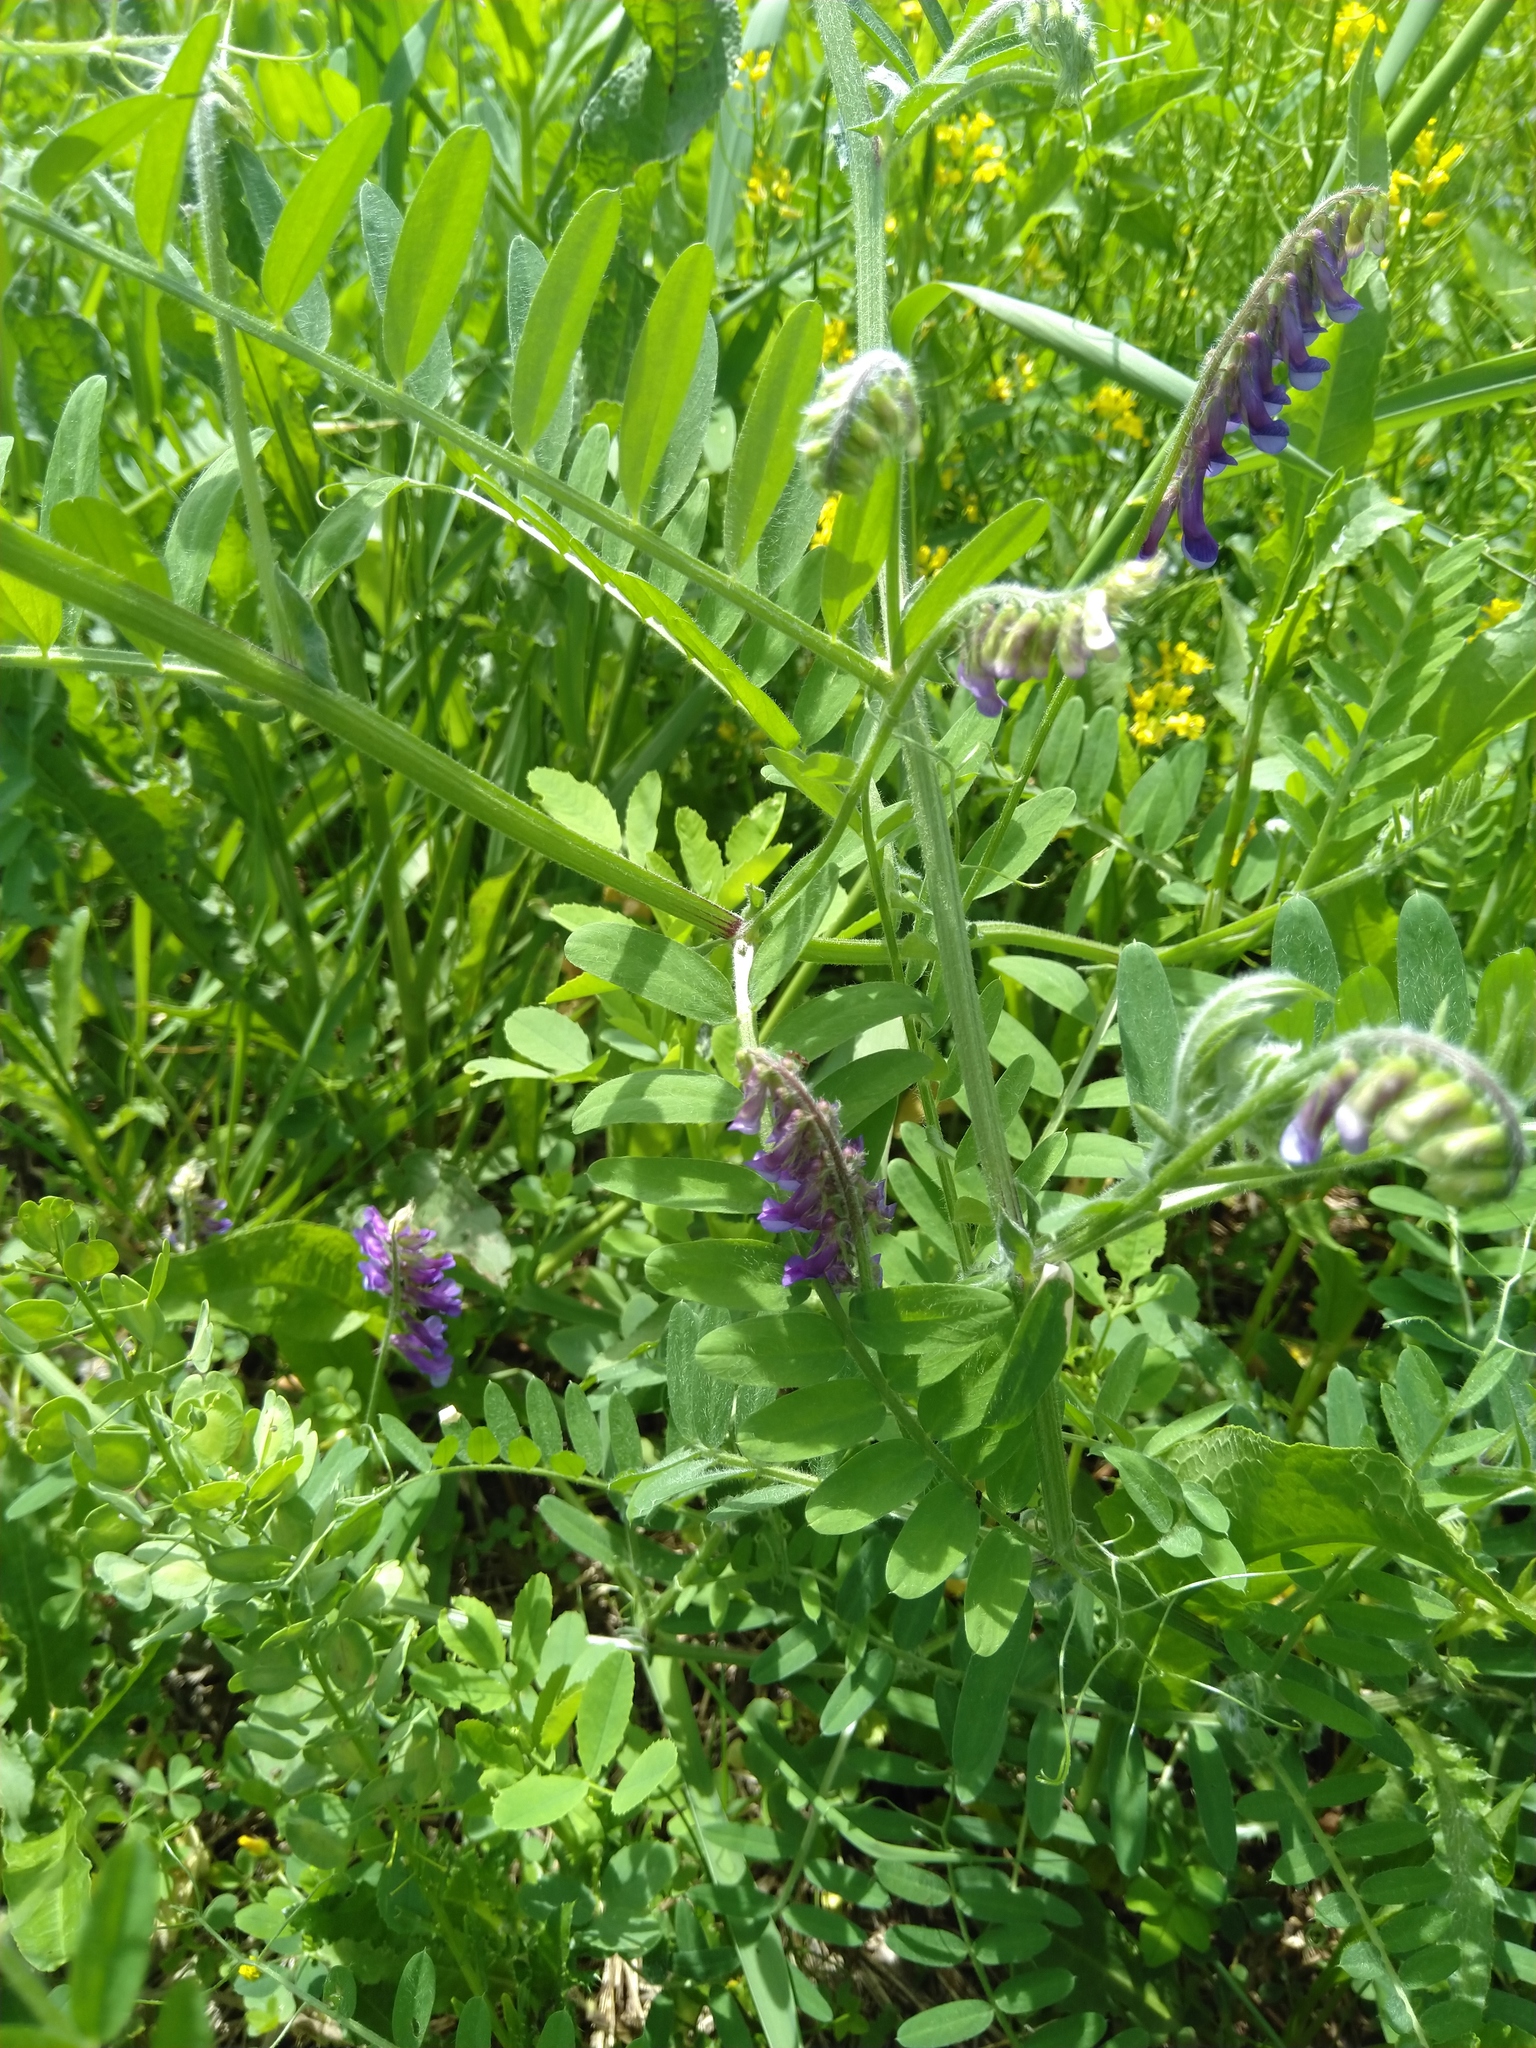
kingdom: Plantae
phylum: Tracheophyta
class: Magnoliopsida
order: Fabales
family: Fabaceae
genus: Vicia
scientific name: Vicia villosa
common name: Fodder vetch
